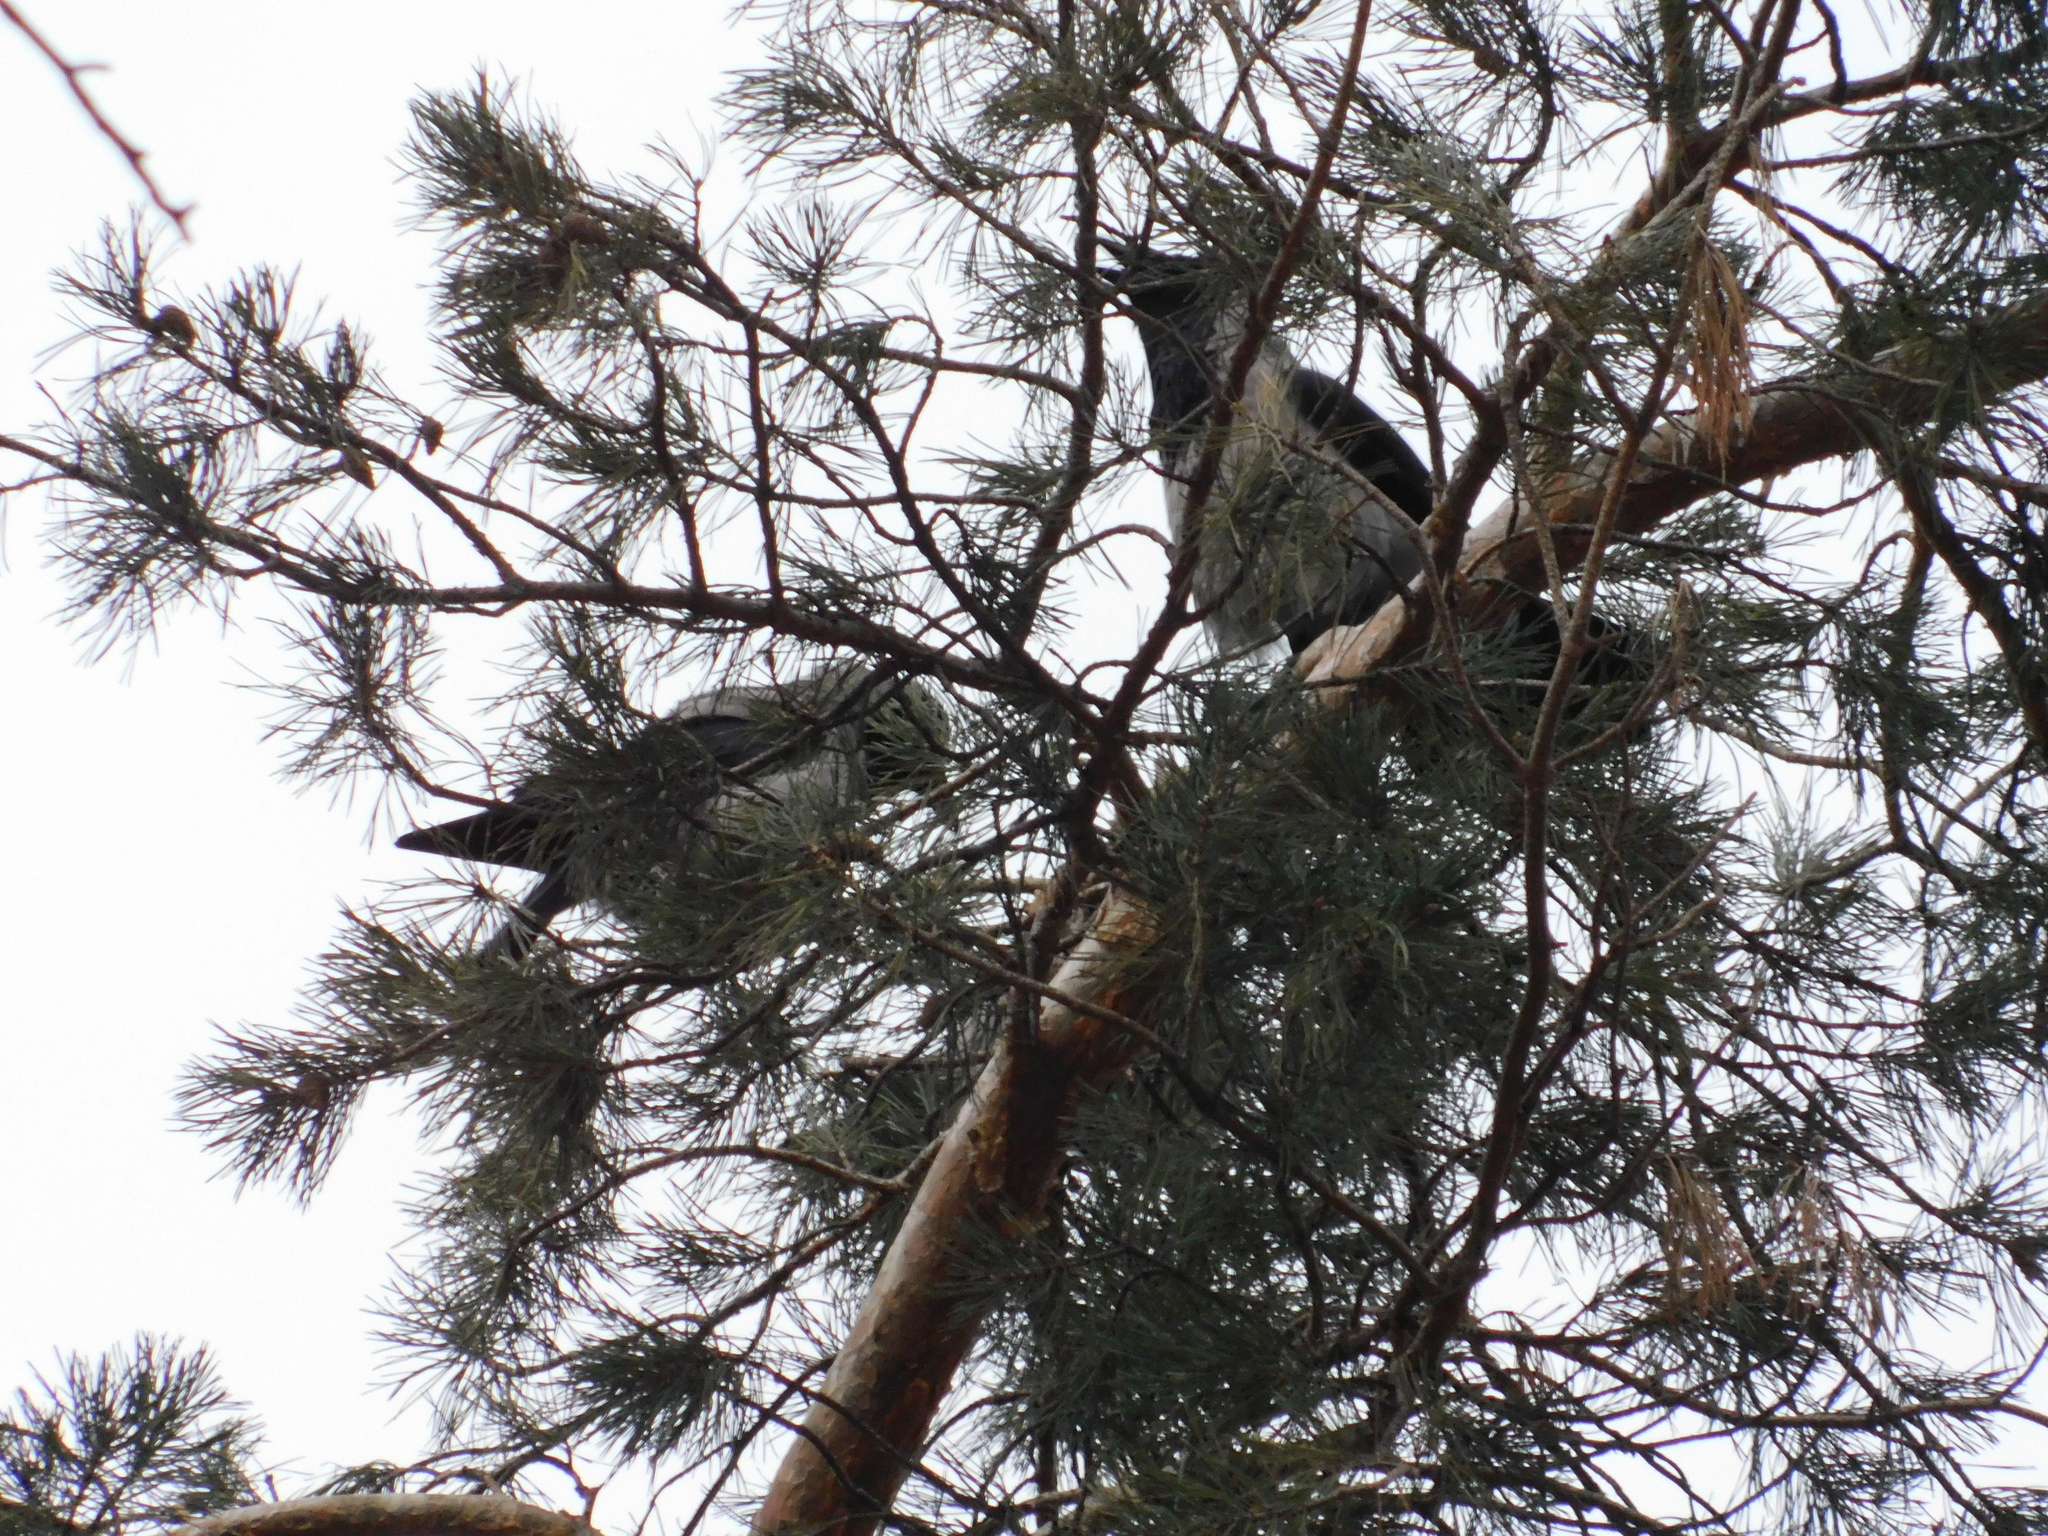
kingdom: Animalia
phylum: Chordata
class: Aves
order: Passeriformes
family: Corvidae
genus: Corvus
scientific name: Corvus cornix
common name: Hooded crow
